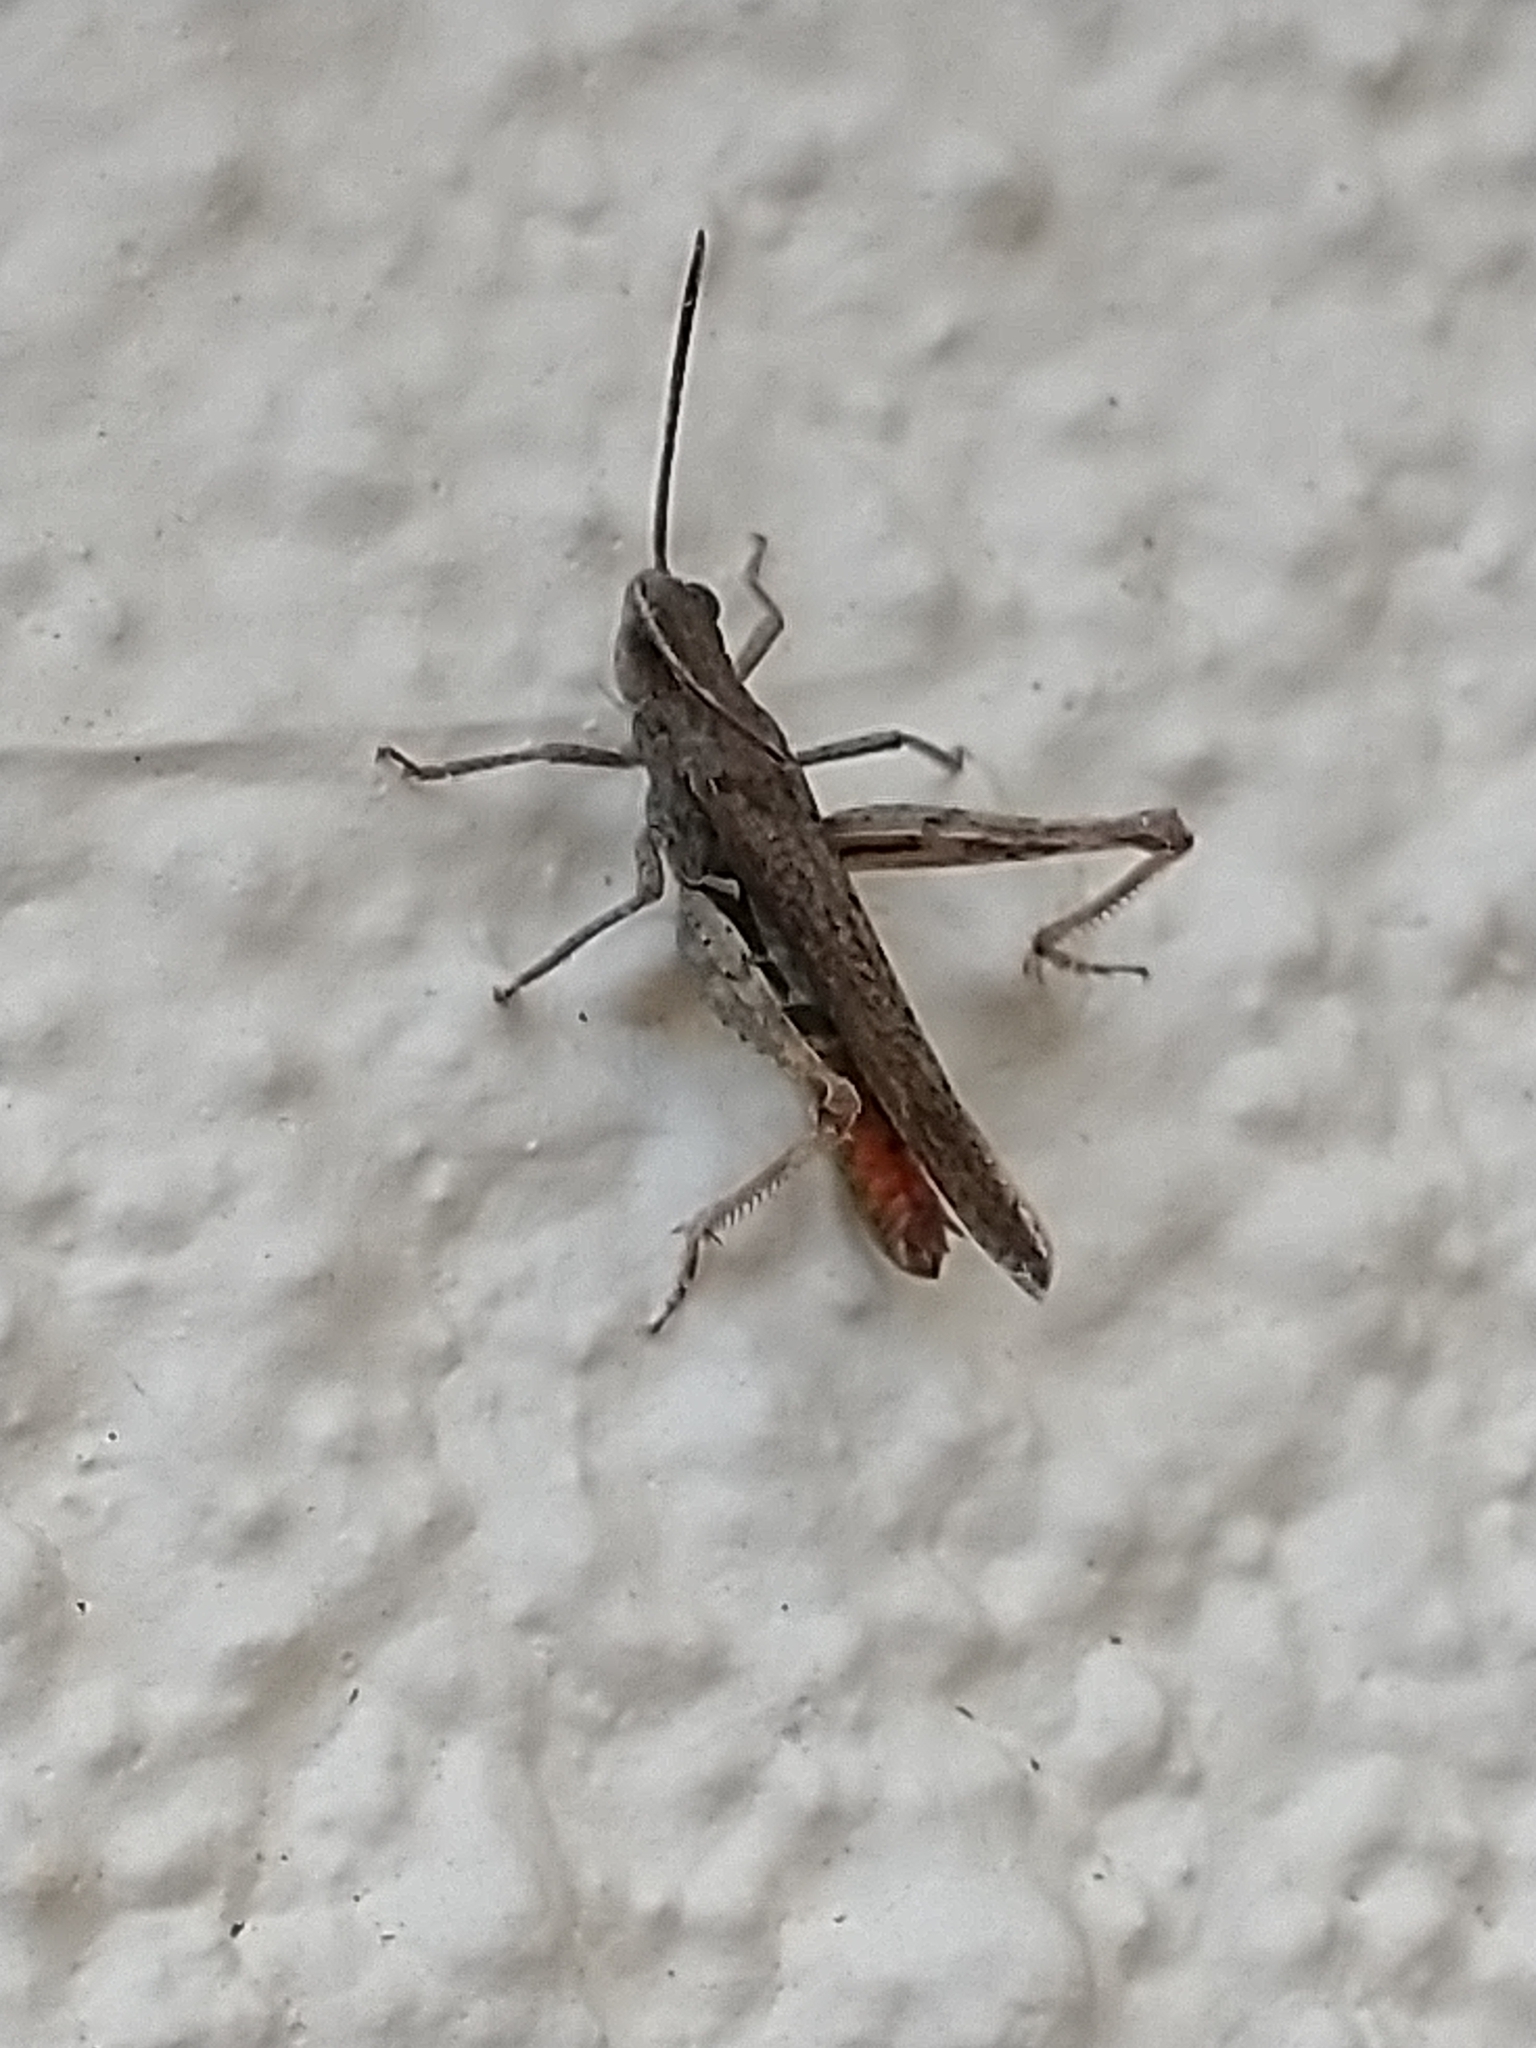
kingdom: Animalia
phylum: Arthropoda
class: Insecta
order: Orthoptera
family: Acrididae
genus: Chorthippus
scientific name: Chorthippus brunneus
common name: Field grasshopper
